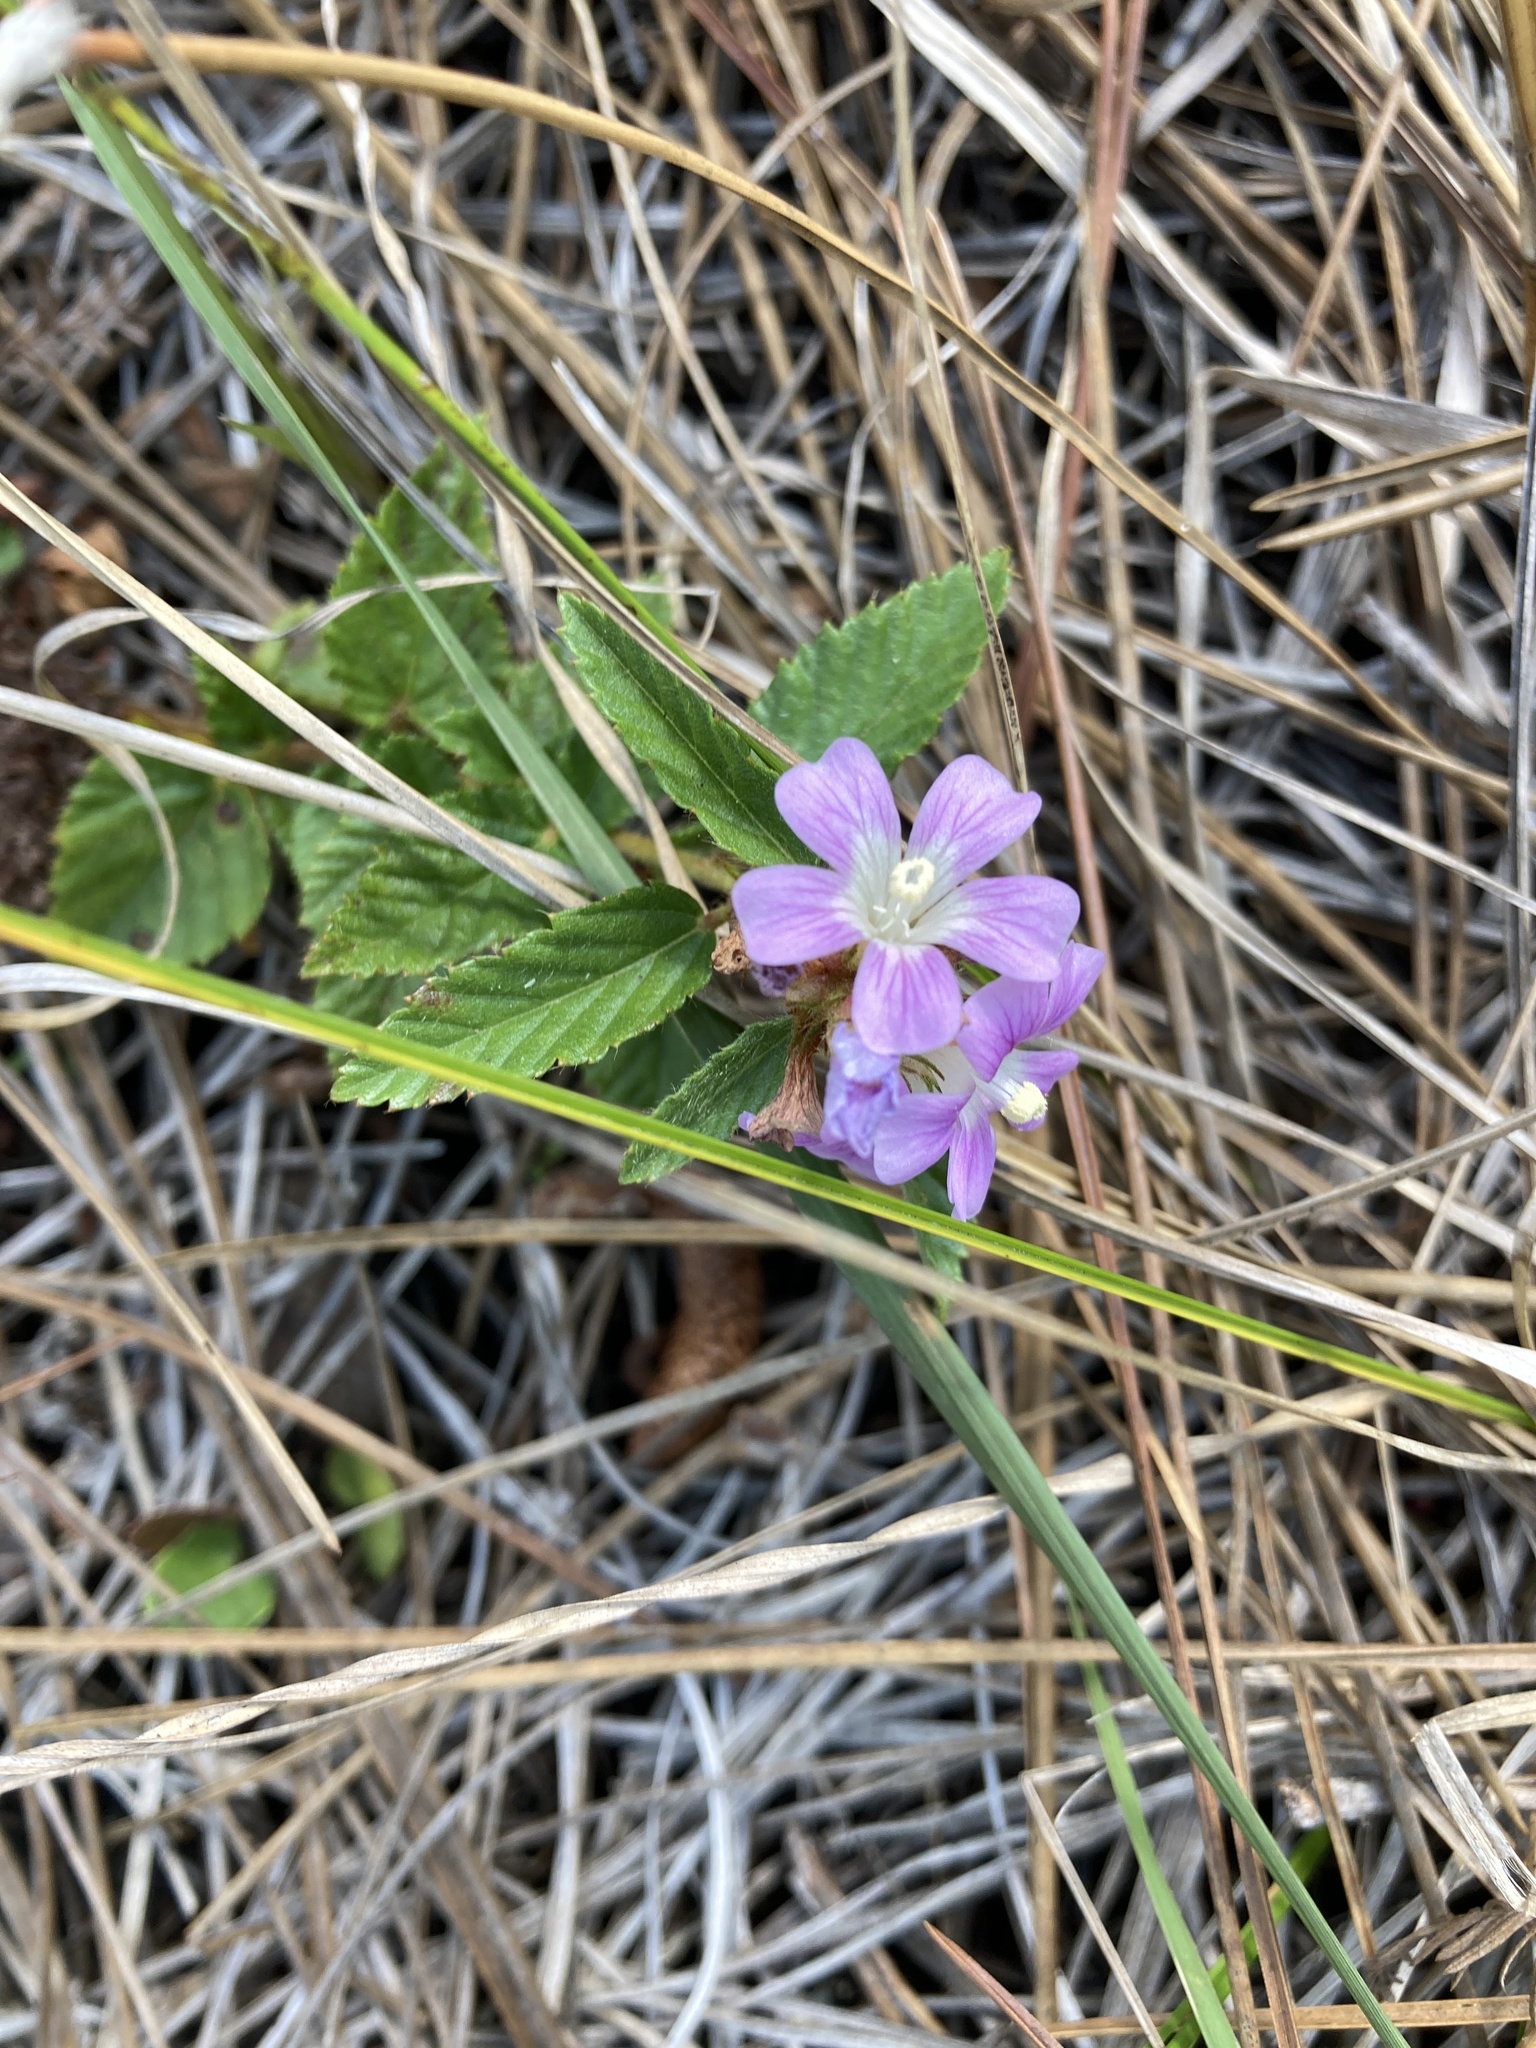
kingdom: Plantae
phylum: Tracheophyta
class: Magnoliopsida
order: Malvales
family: Malvaceae
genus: Melochia
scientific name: Melochia spicata
